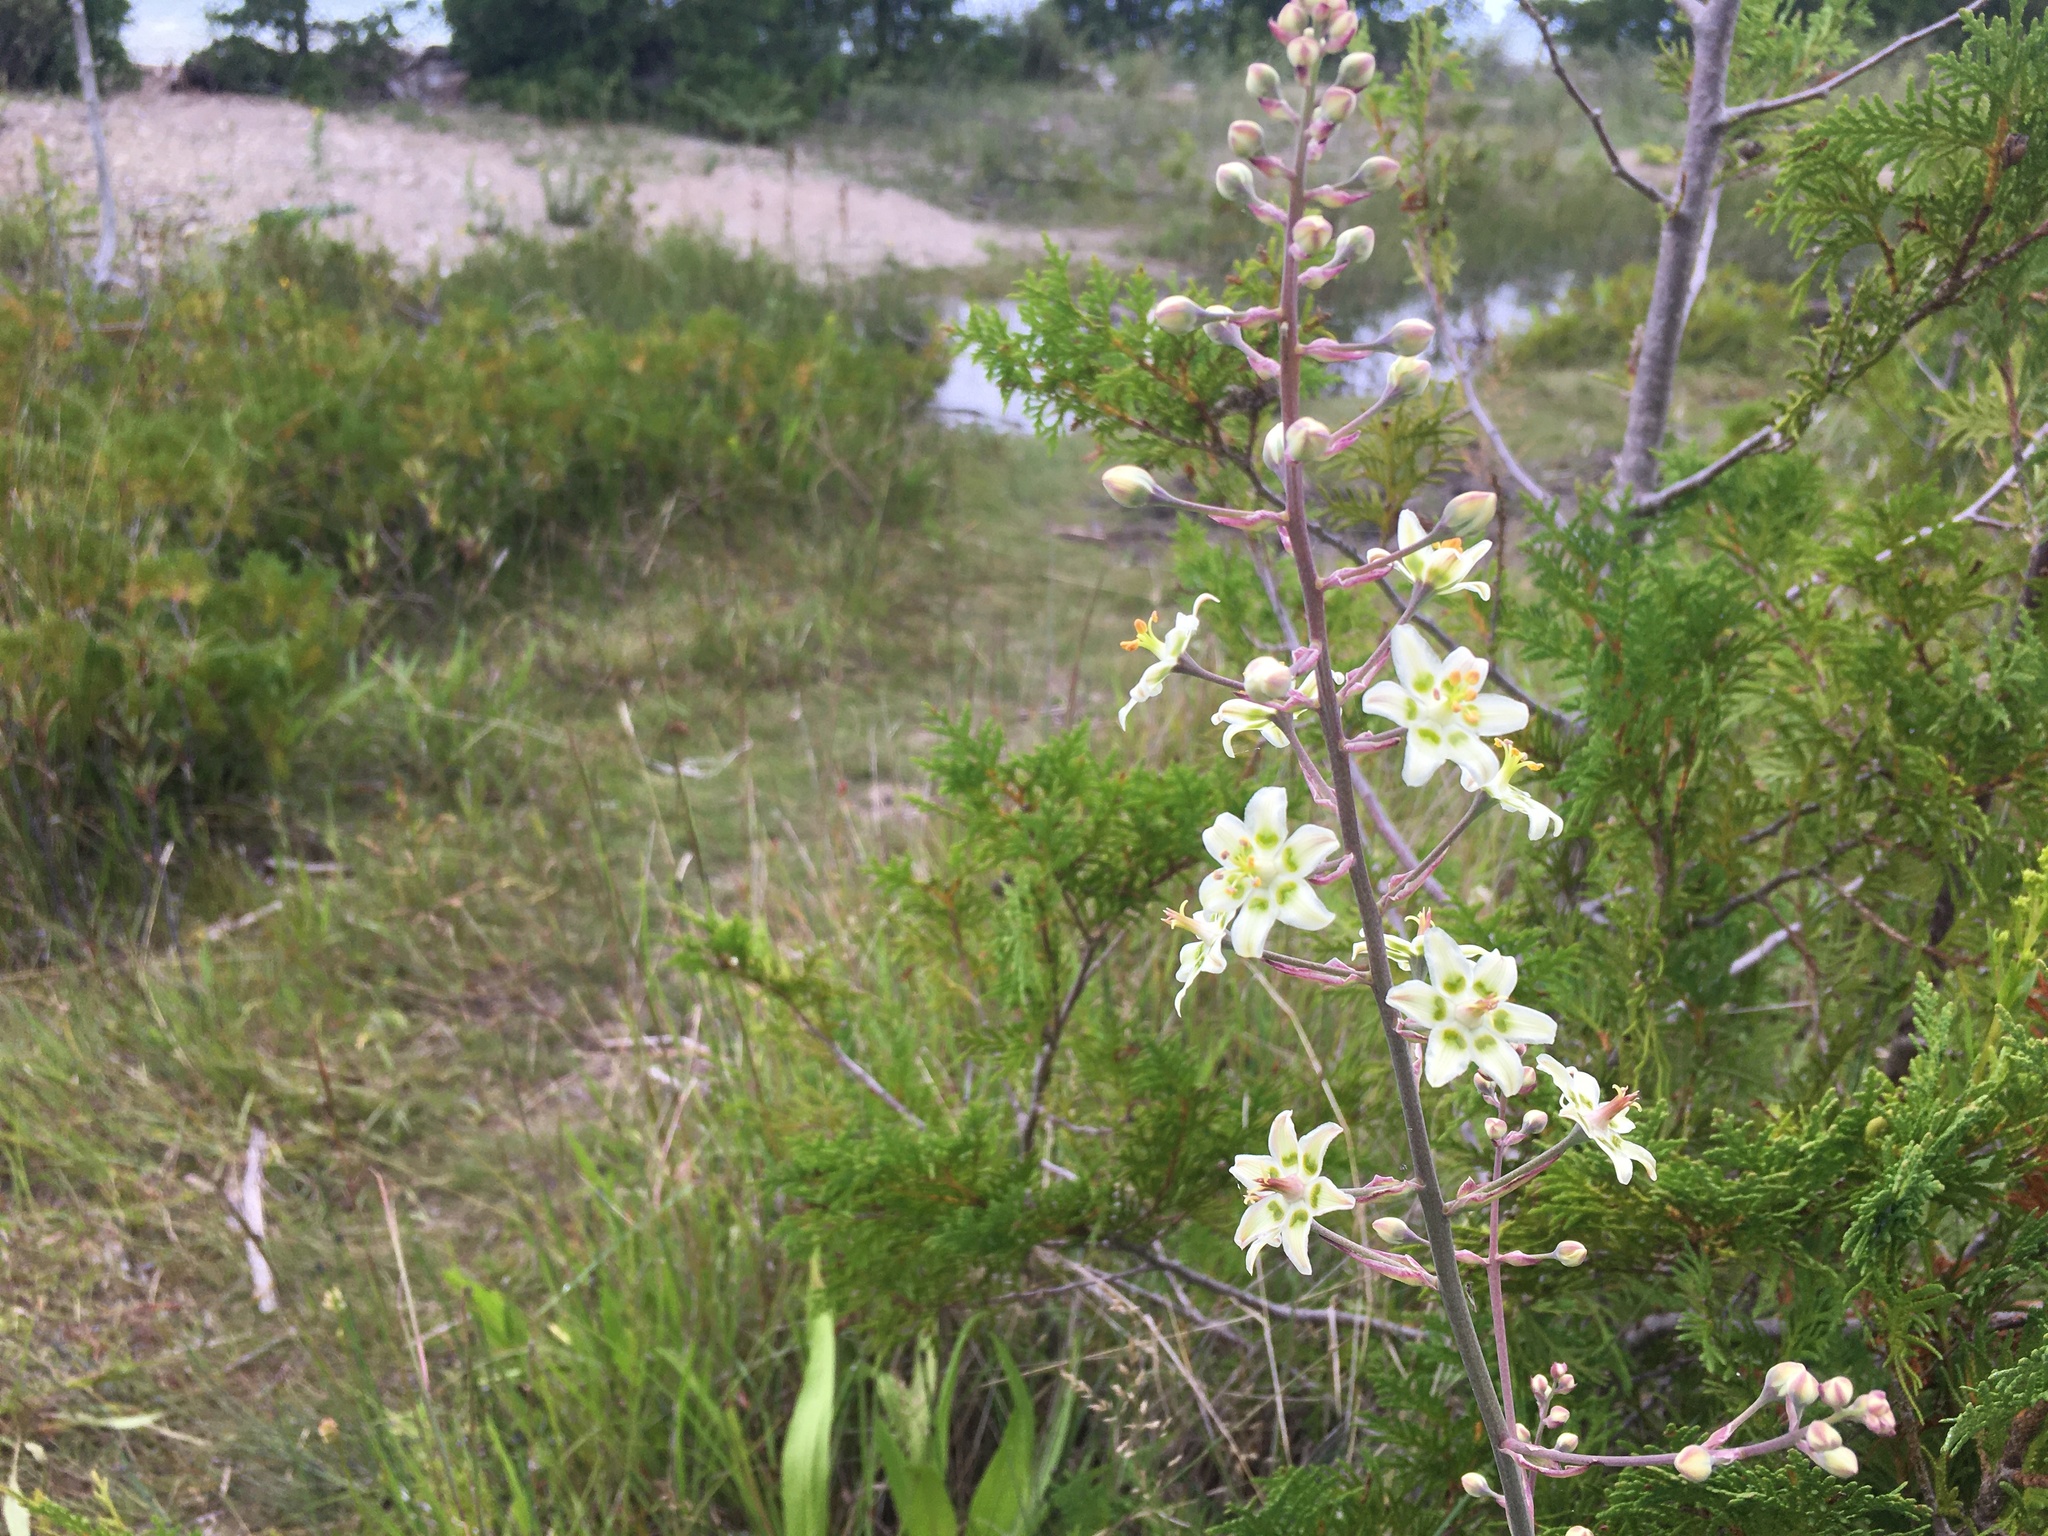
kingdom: Plantae
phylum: Tracheophyta
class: Liliopsida
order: Liliales
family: Melanthiaceae
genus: Anticlea
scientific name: Anticlea elegans
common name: Mountain death camas
